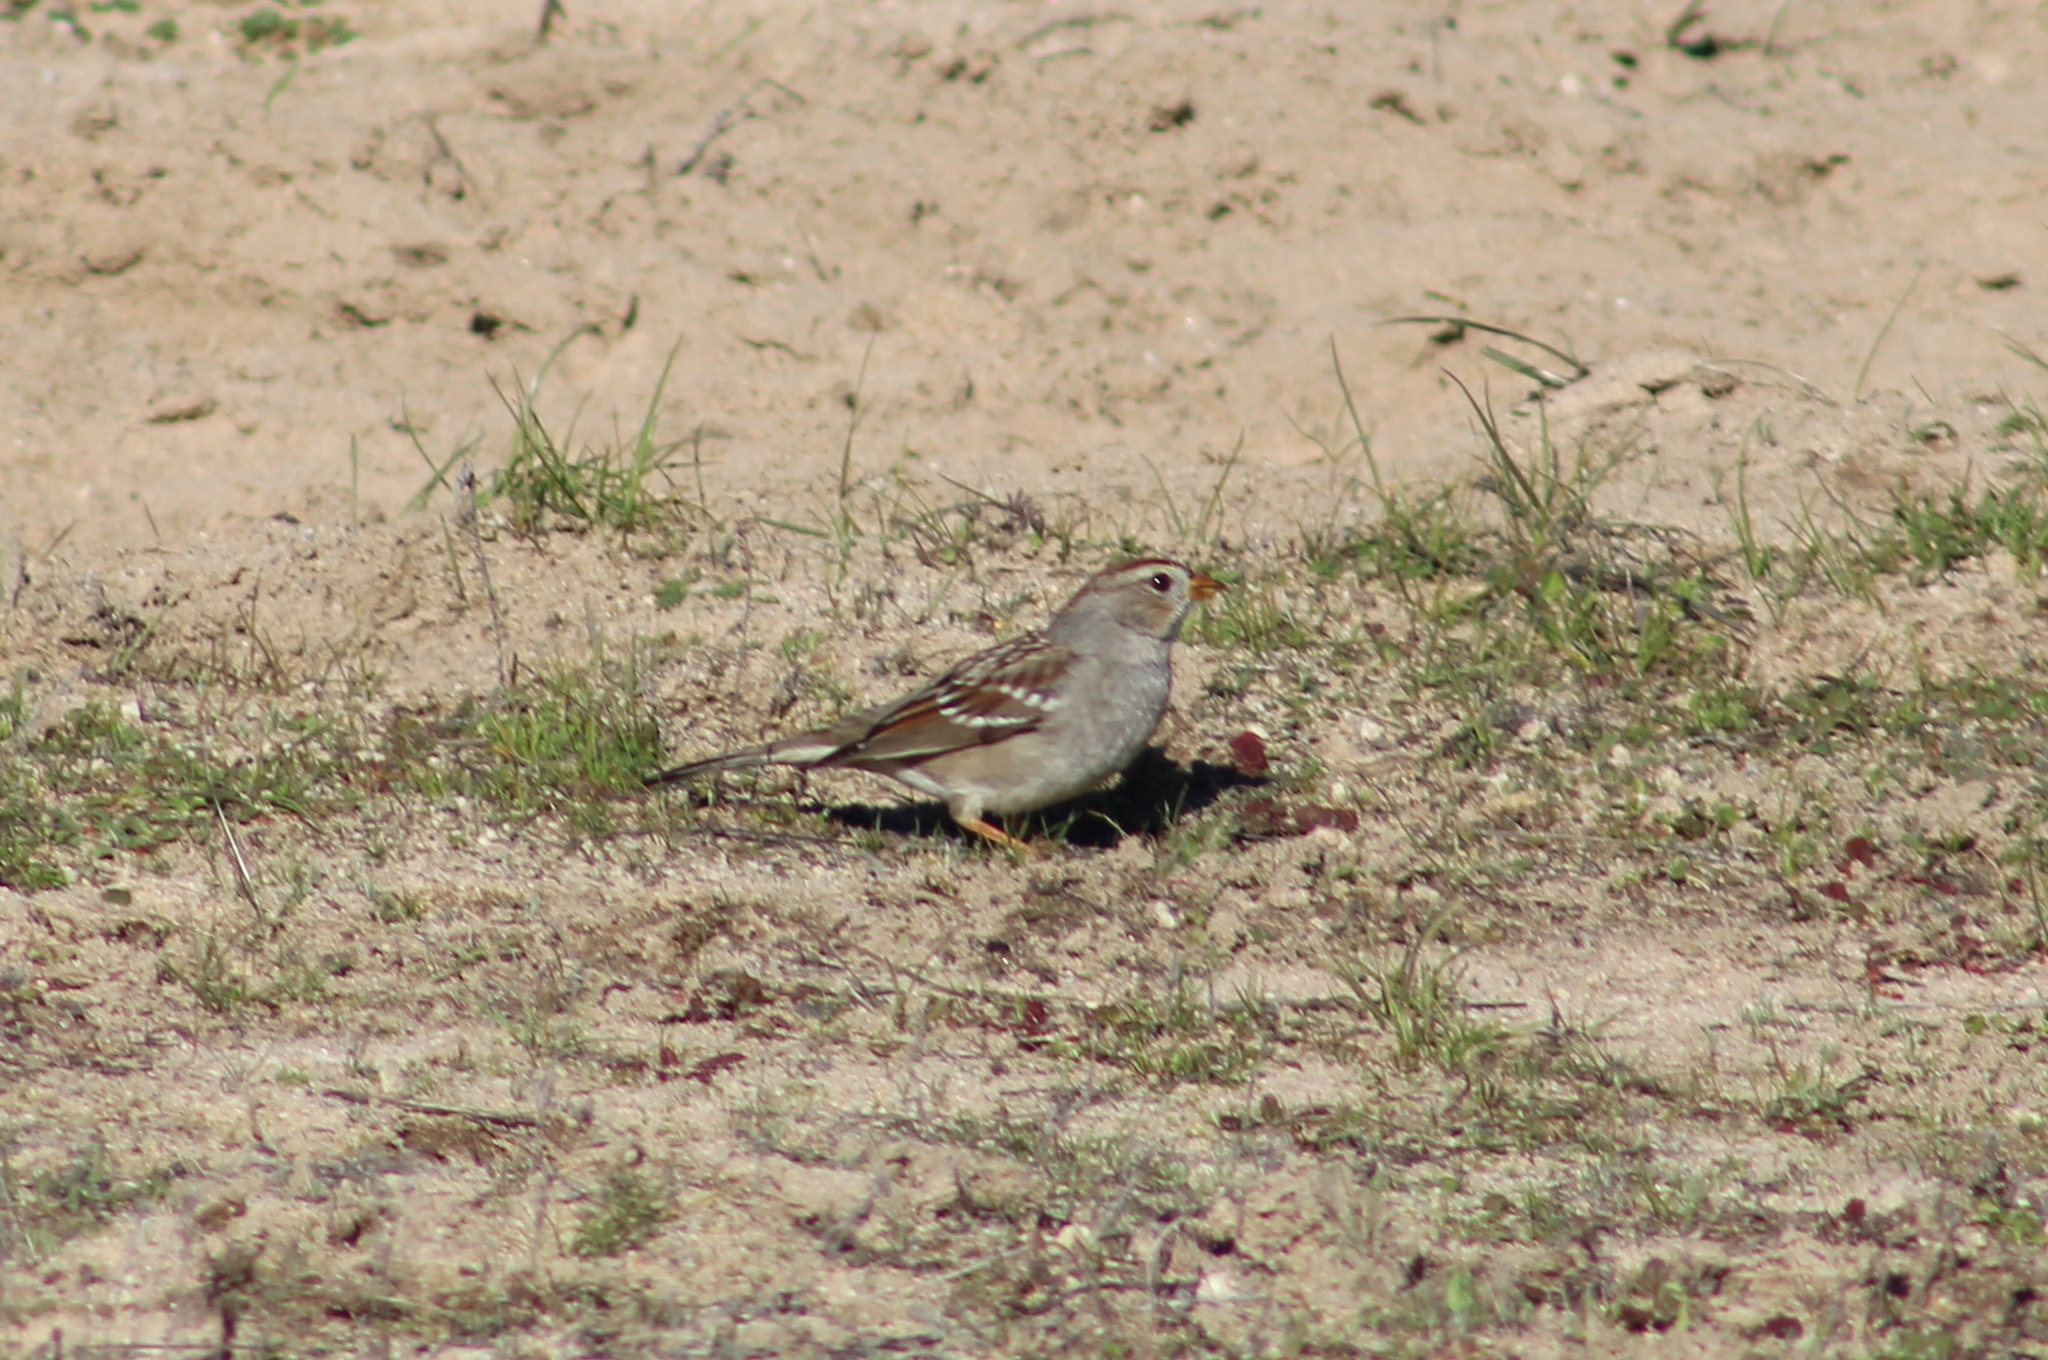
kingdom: Animalia
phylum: Chordata
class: Aves
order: Passeriformes
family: Passerellidae
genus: Zonotrichia
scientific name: Zonotrichia leucophrys
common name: White-crowned sparrow
